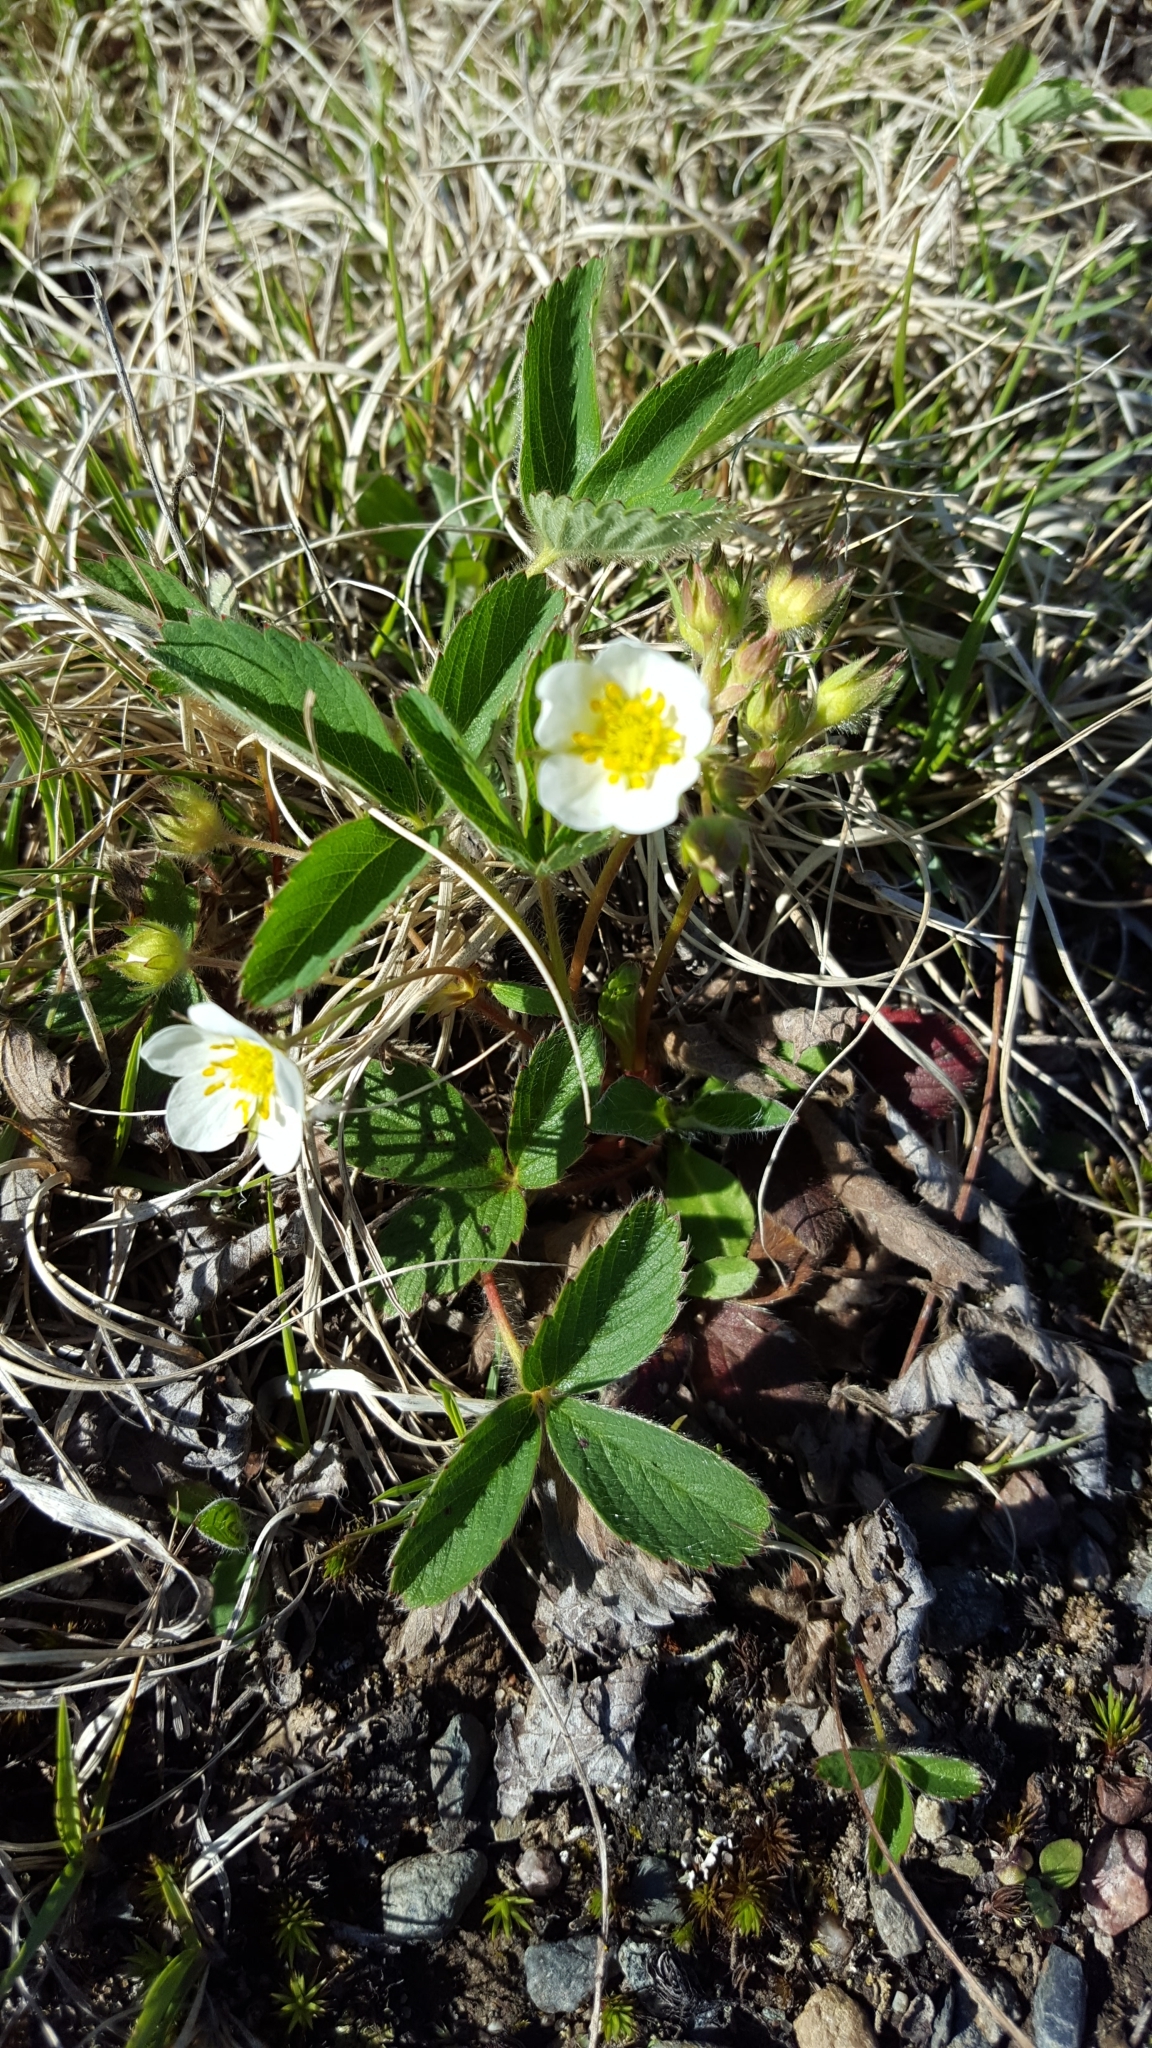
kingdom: Plantae
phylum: Tracheophyta
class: Magnoliopsida
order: Rosales
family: Rosaceae
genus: Fragaria
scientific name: Fragaria virginiana
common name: Thickleaved wild strawberry
